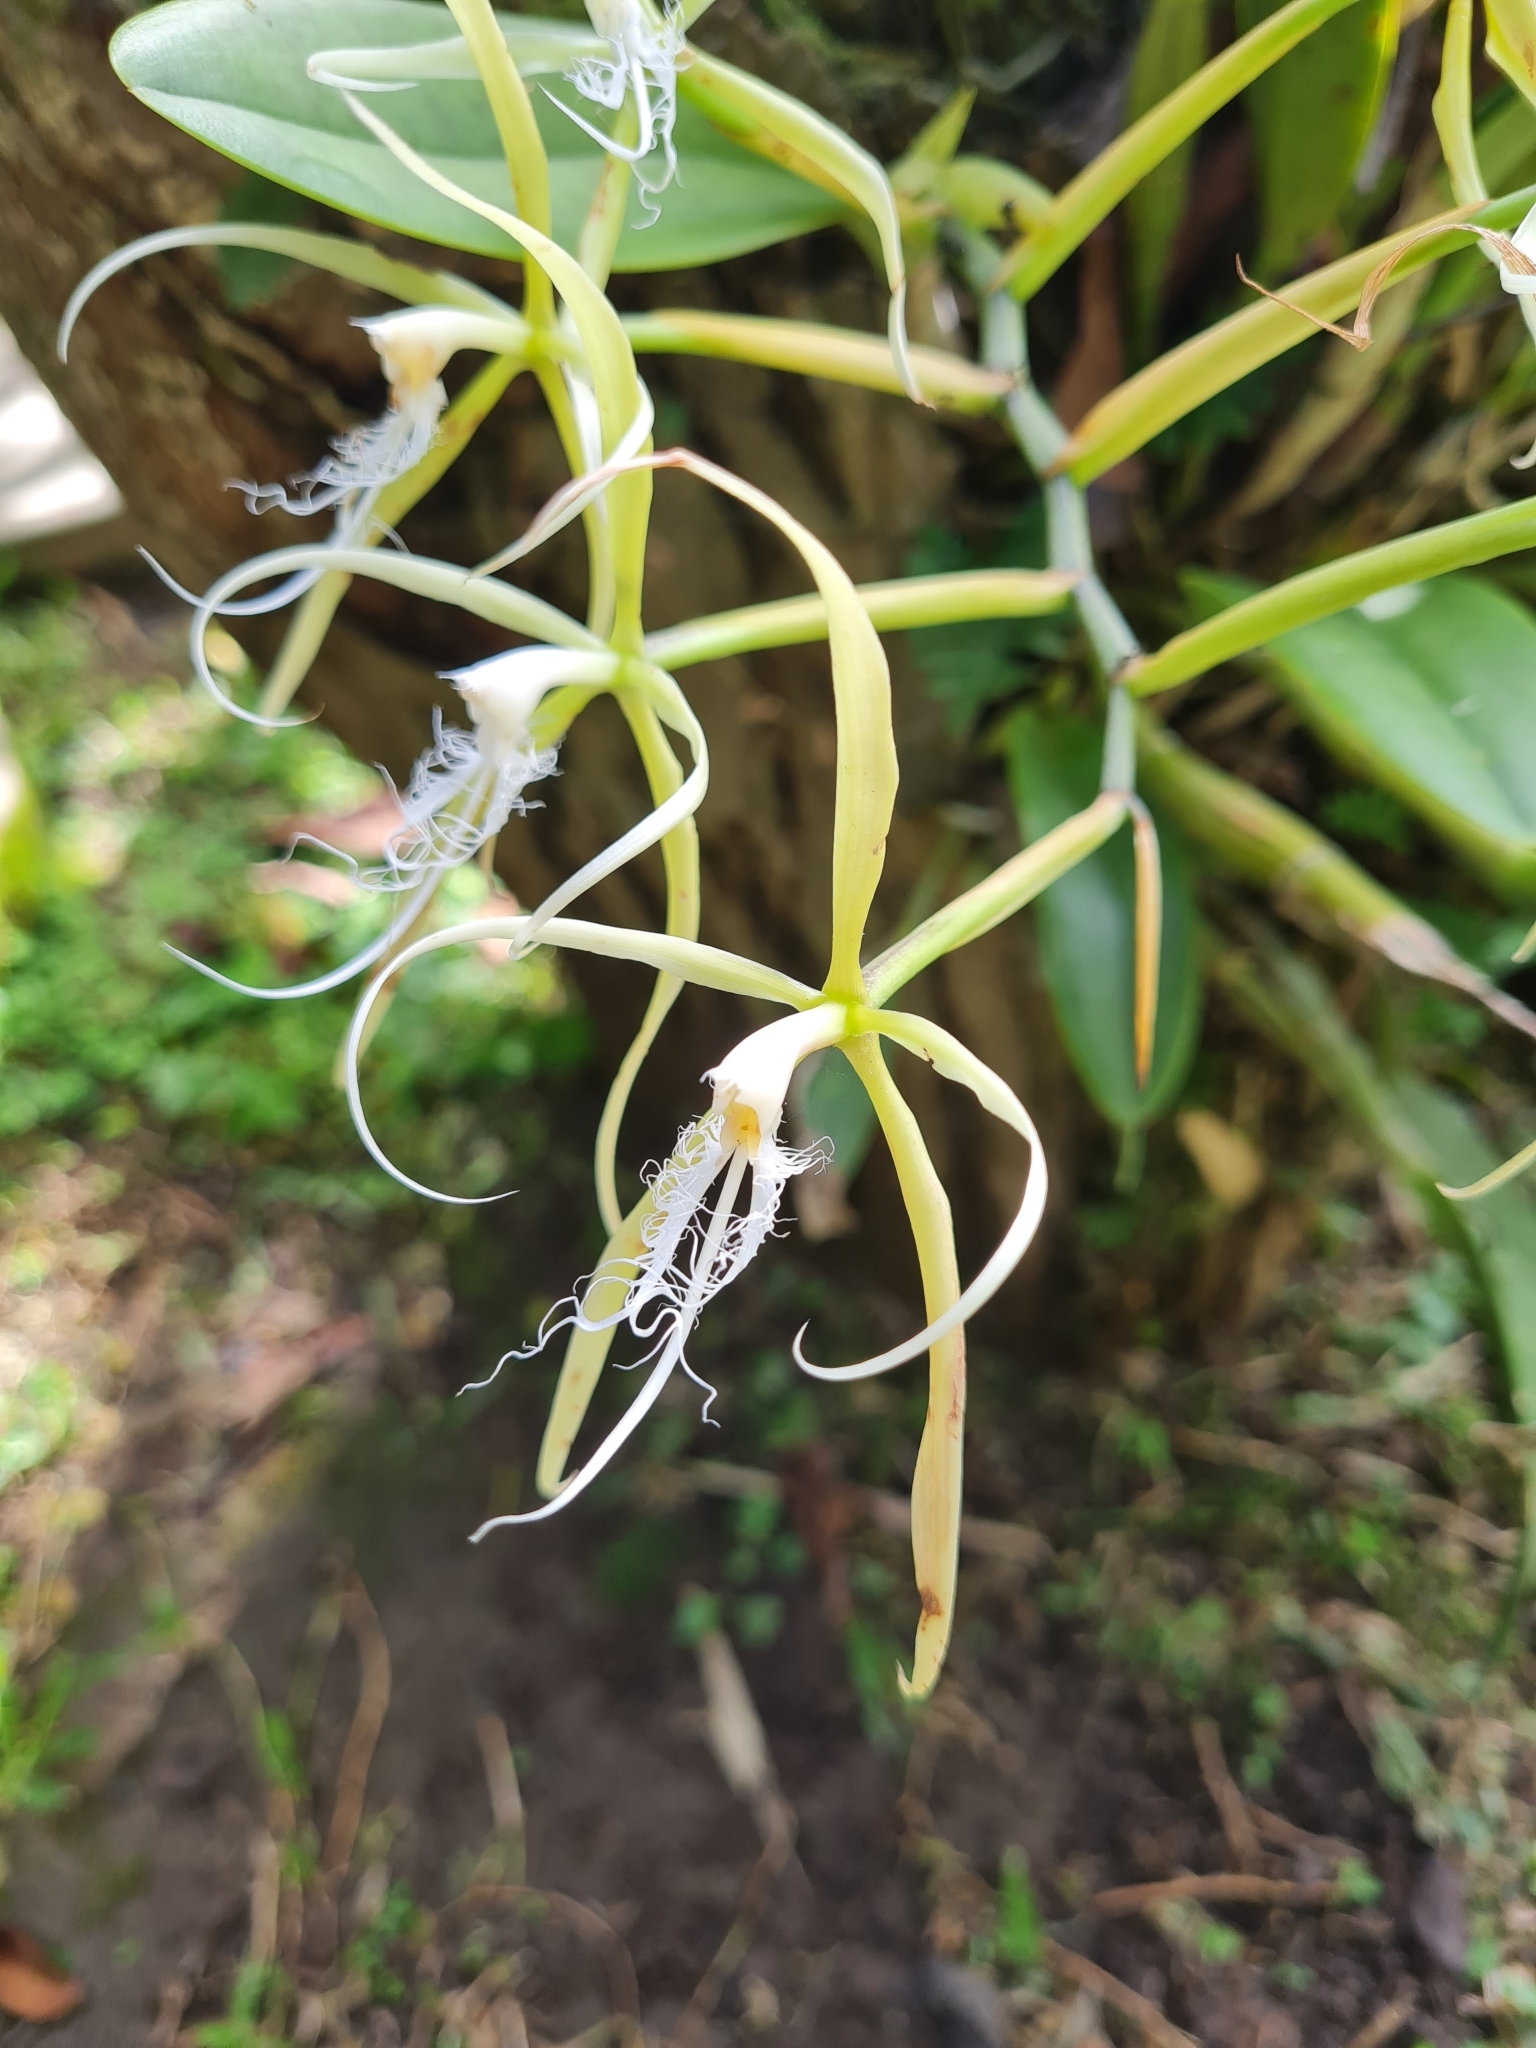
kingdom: Plantae
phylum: Tracheophyta
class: Liliopsida
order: Asparagales
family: Orchidaceae
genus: Epidendrum
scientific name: Epidendrum ciliare
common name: Eyelash orchid
